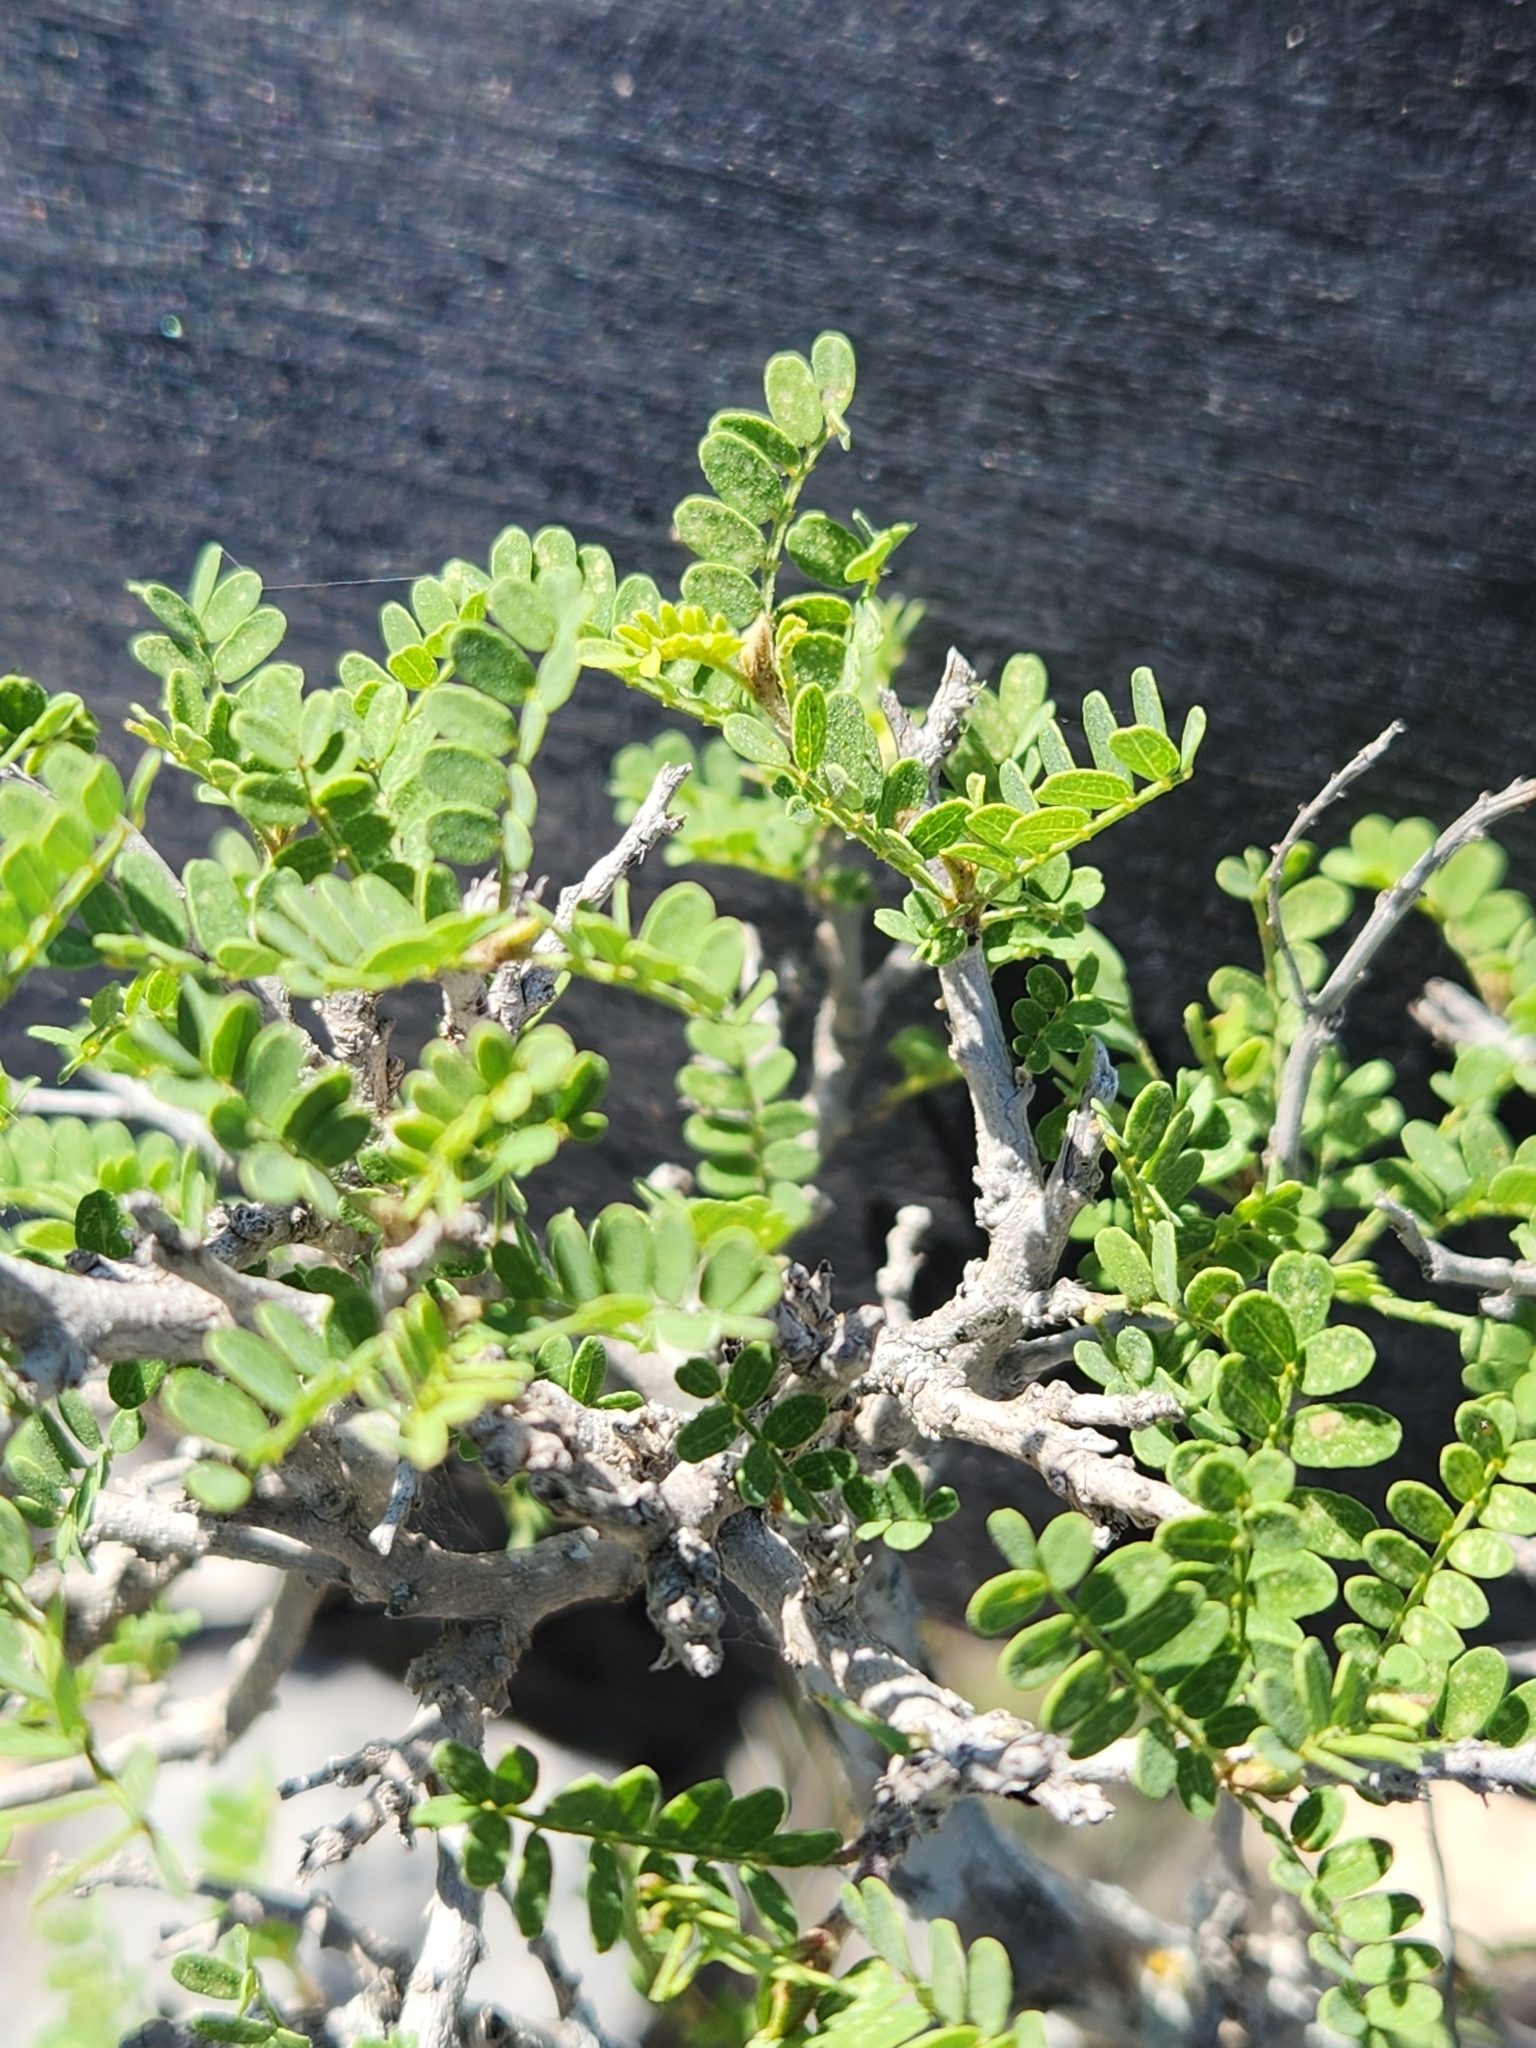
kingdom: Plantae
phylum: Tracheophyta
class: Magnoliopsida
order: Fabales
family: Fabaceae
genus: Eysenhardtia
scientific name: Eysenhardtia texana
